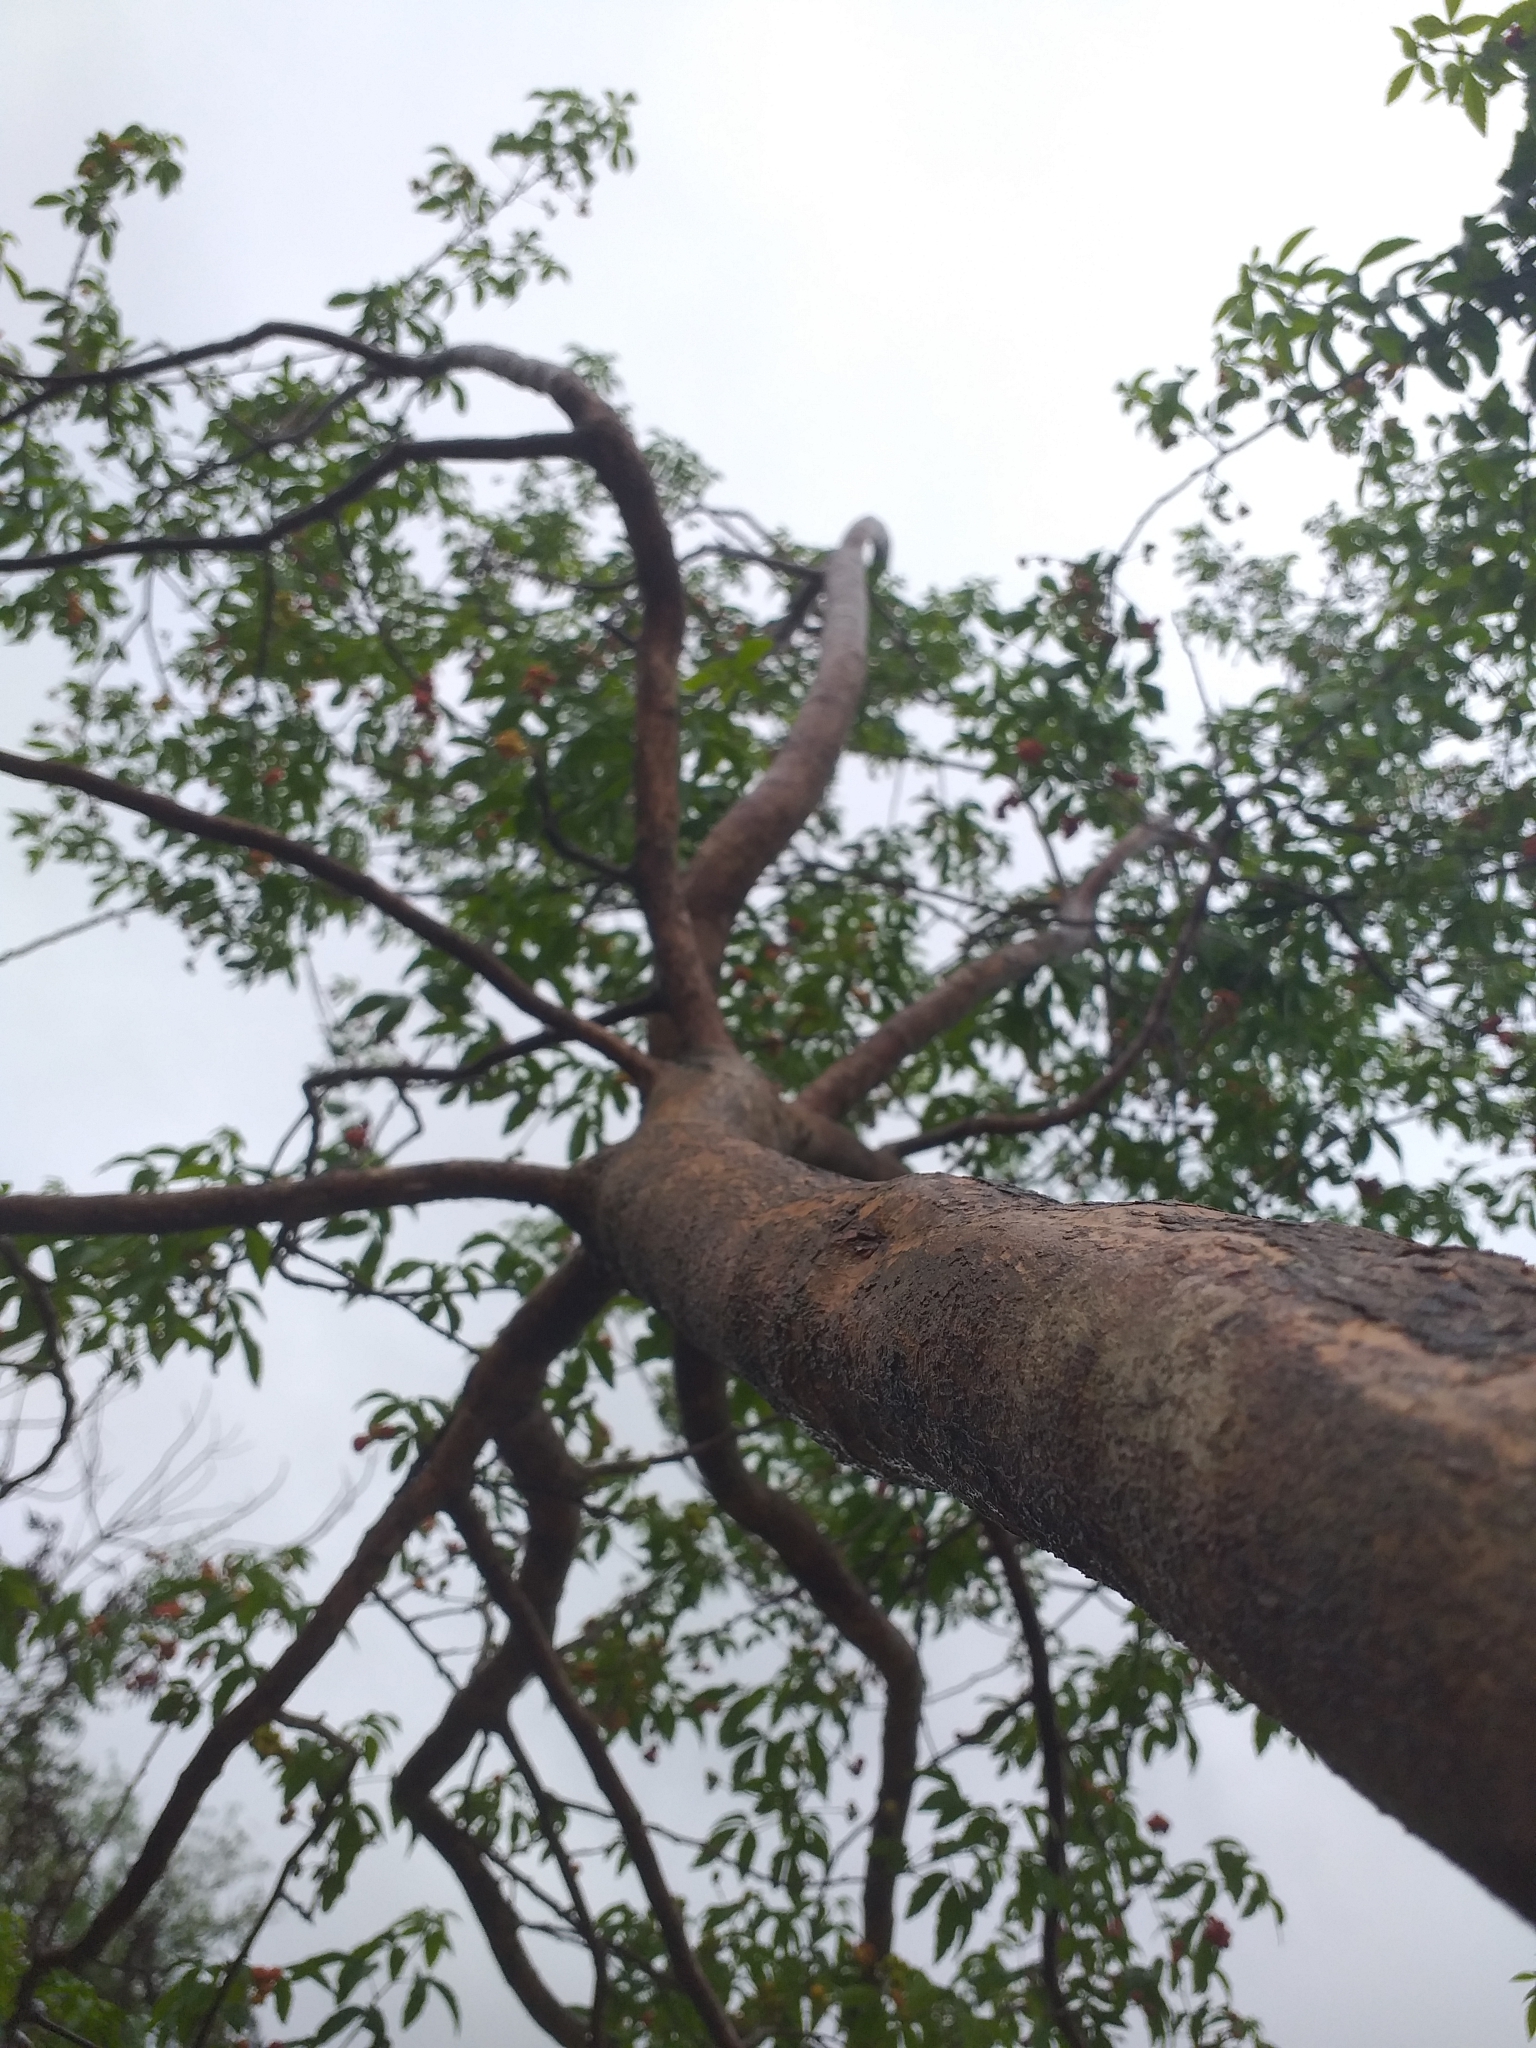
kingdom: Plantae
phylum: Tracheophyta
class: Magnoliopsida
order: Sapindales
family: Sapindaceae
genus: Allophylus
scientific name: Allophylus edulis
